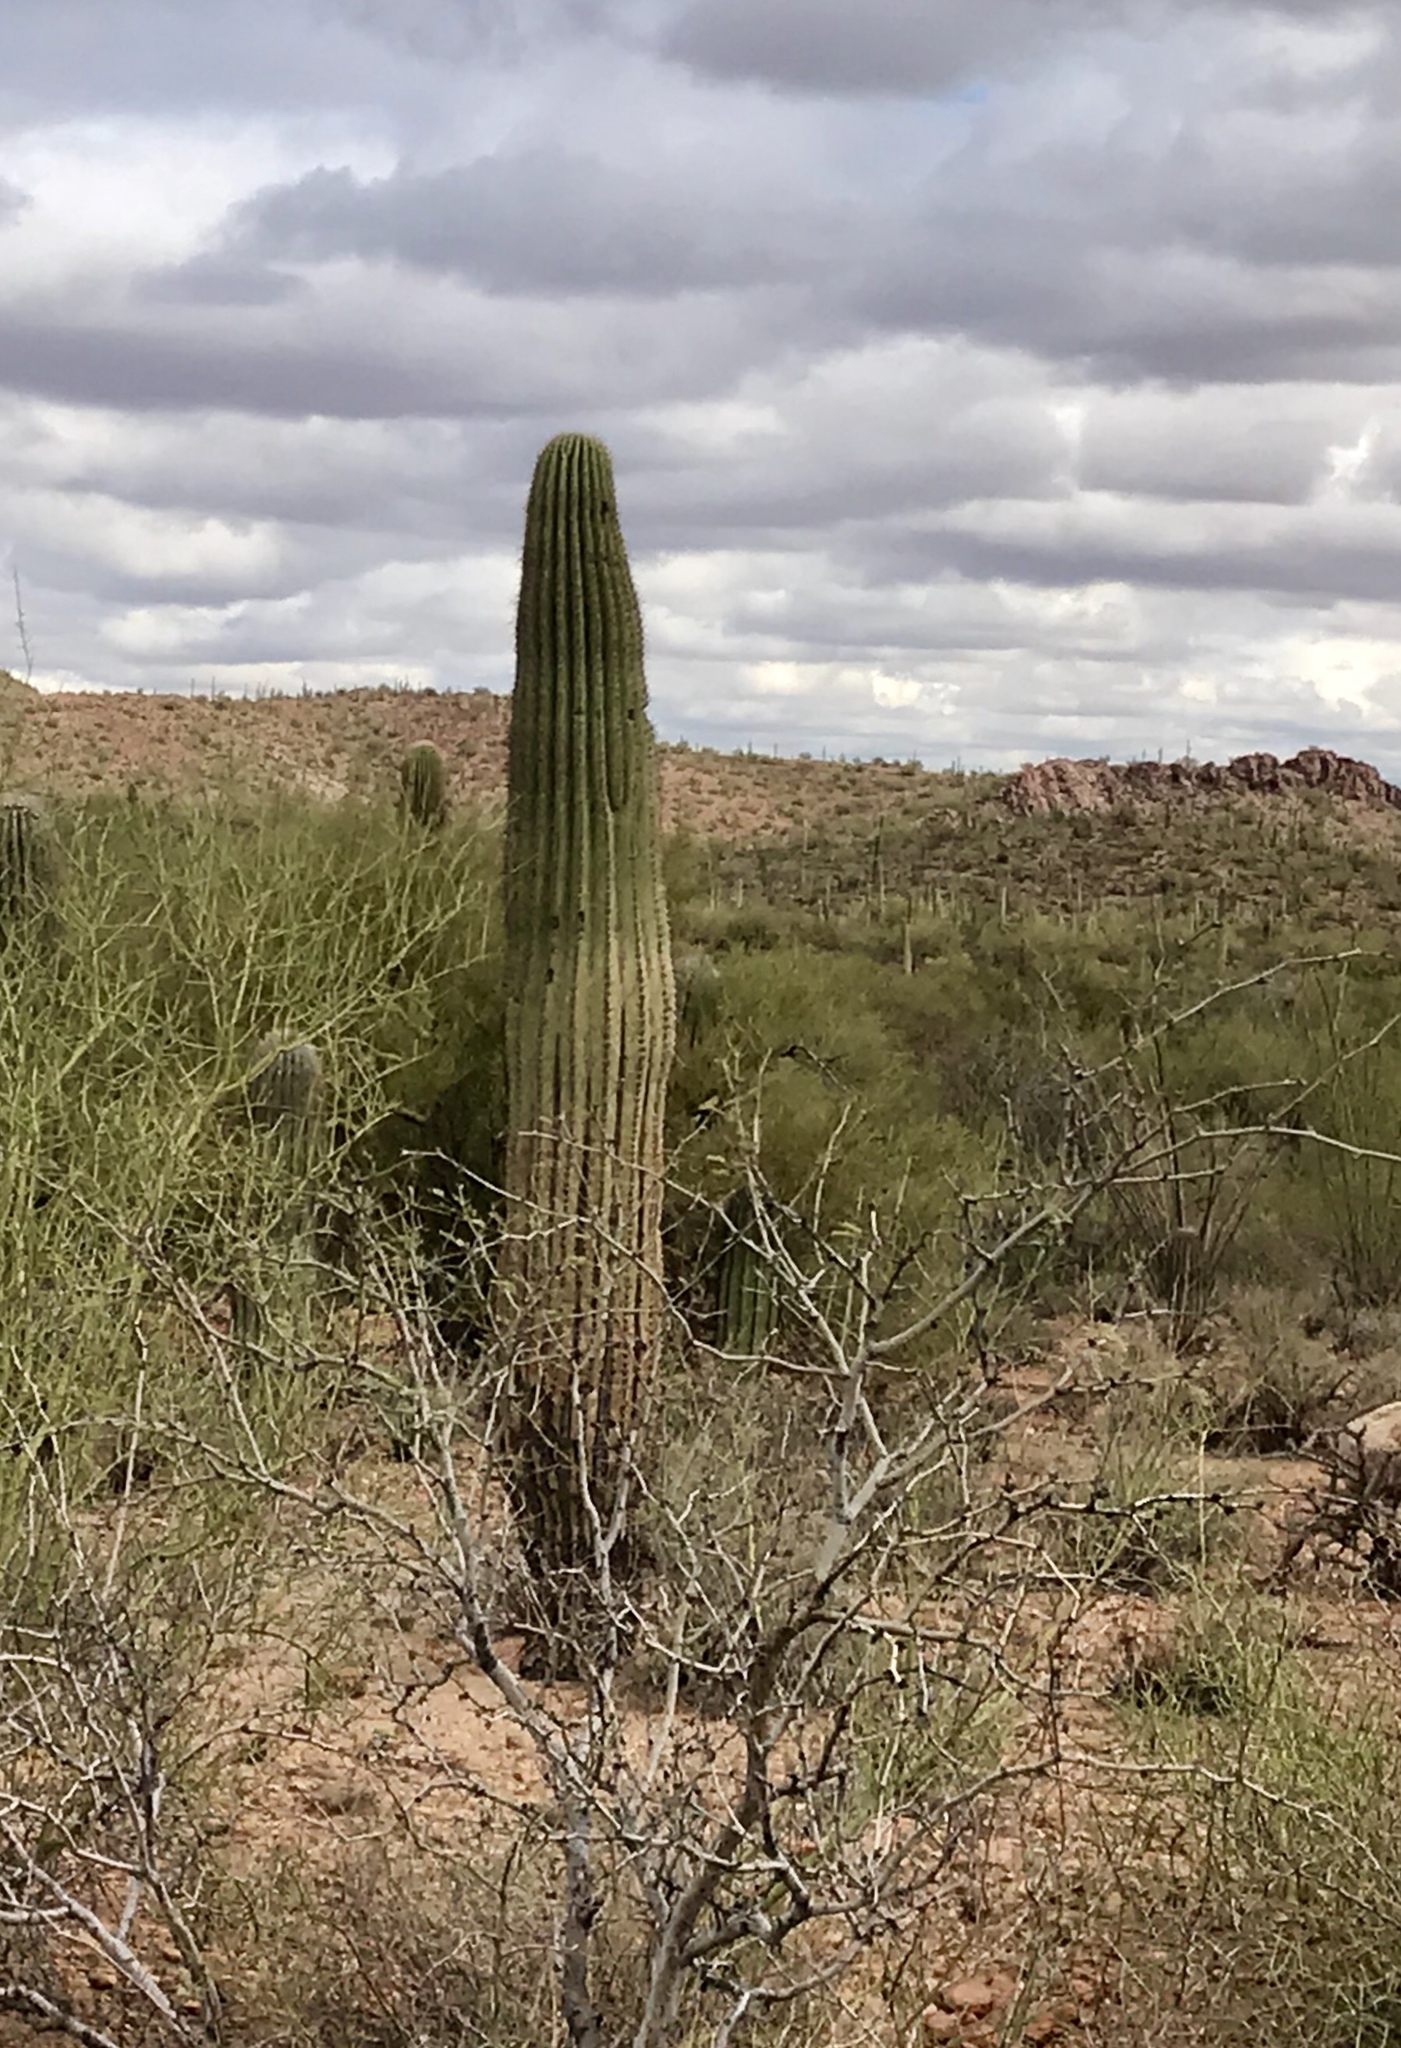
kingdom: Plantae
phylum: Tracheophyta
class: Magnoliopsida
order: Caryophyllales
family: Cactaceae
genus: Carnegiea
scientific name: Carnegiea gigantea
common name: Saguaro
